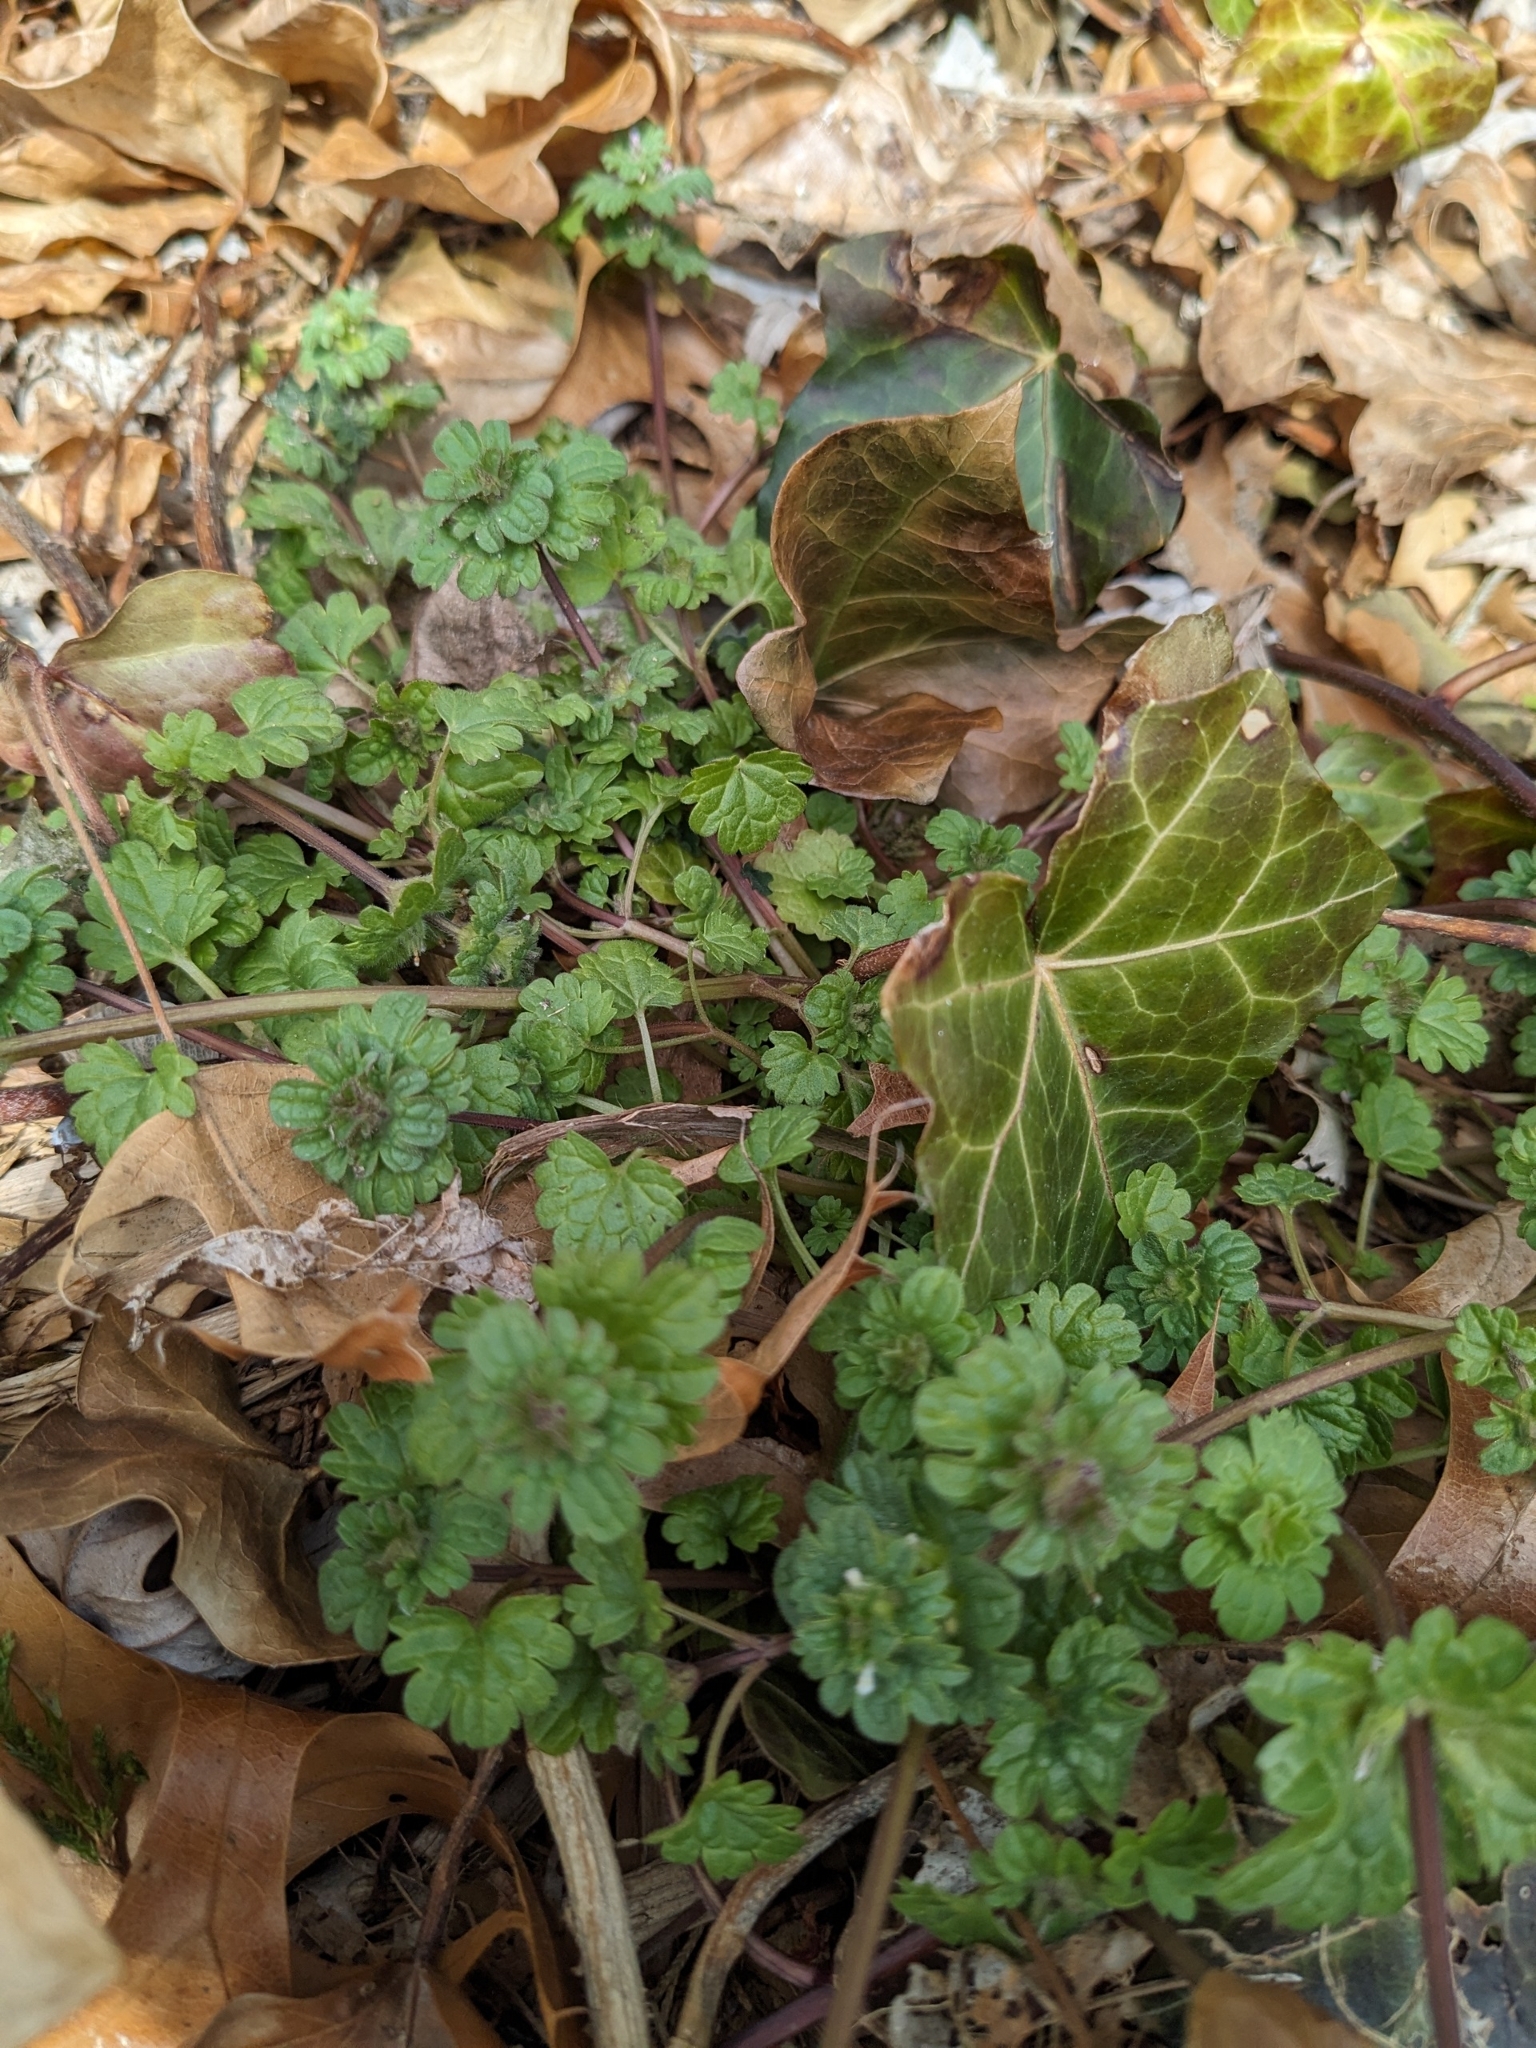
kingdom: Plantae
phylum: Tracheophyta
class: Magnoliopsida
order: Lamiales
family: Lamiaceae
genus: Lamium
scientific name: Lamium amplexicaule
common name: Henbit dead-nettle
